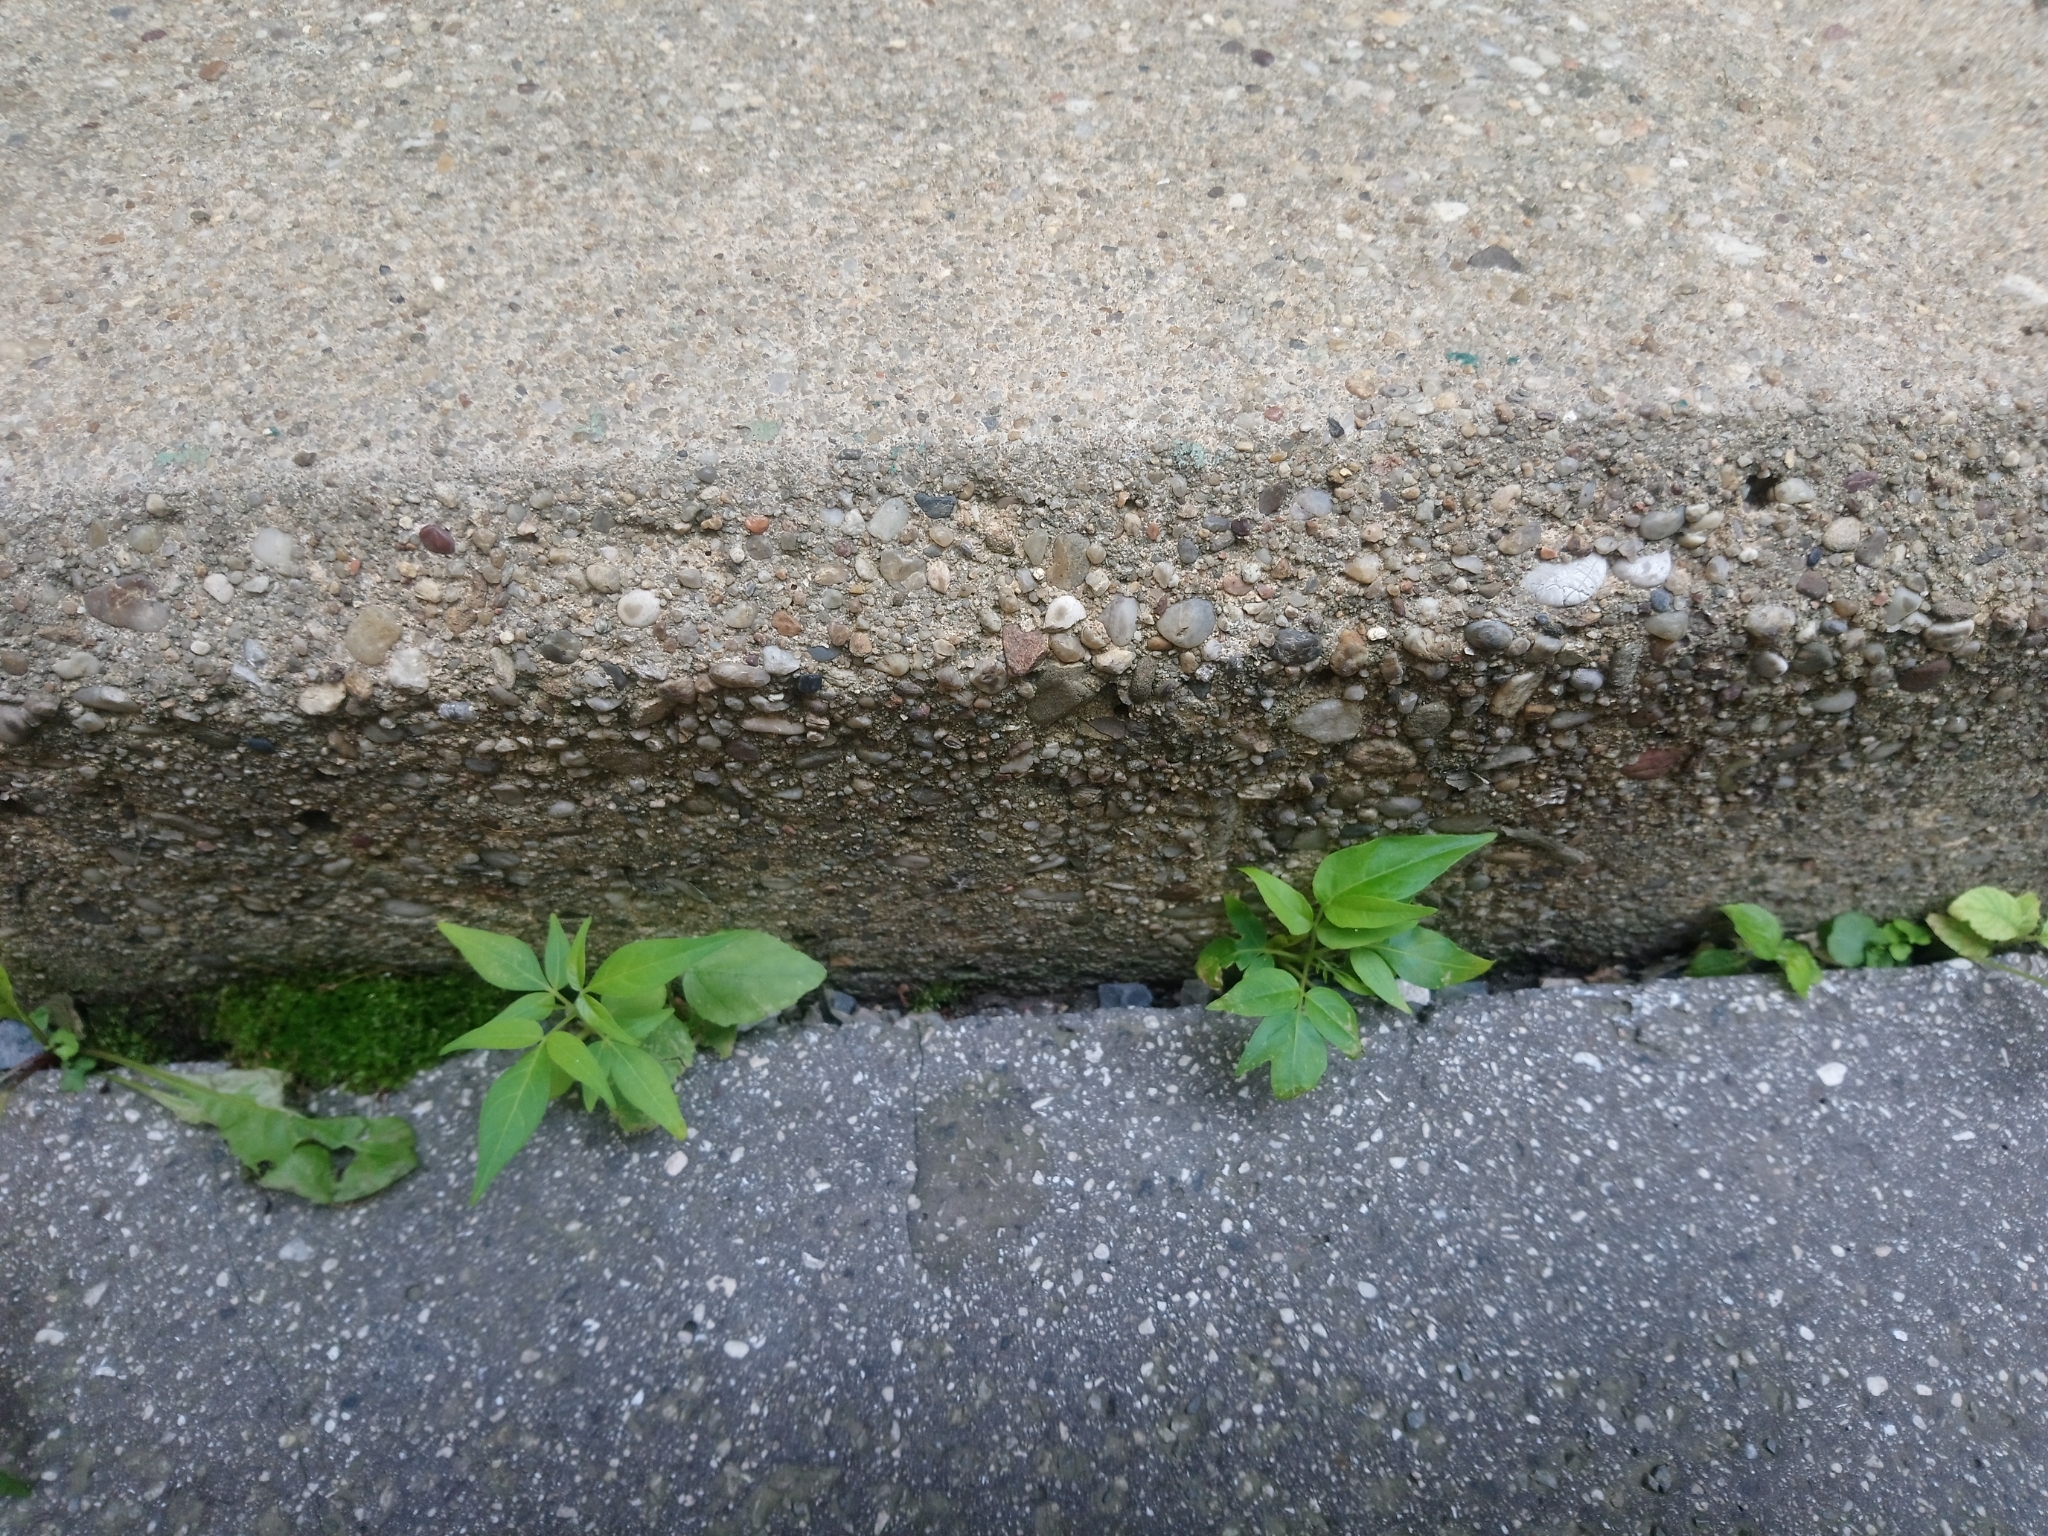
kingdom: Plantae
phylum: Tracheophyta
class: Magnoliopsida
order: Sapindales
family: Simaroubaceae
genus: Ailanthus
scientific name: Ailanthus altissima
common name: Tree-of-heaven
